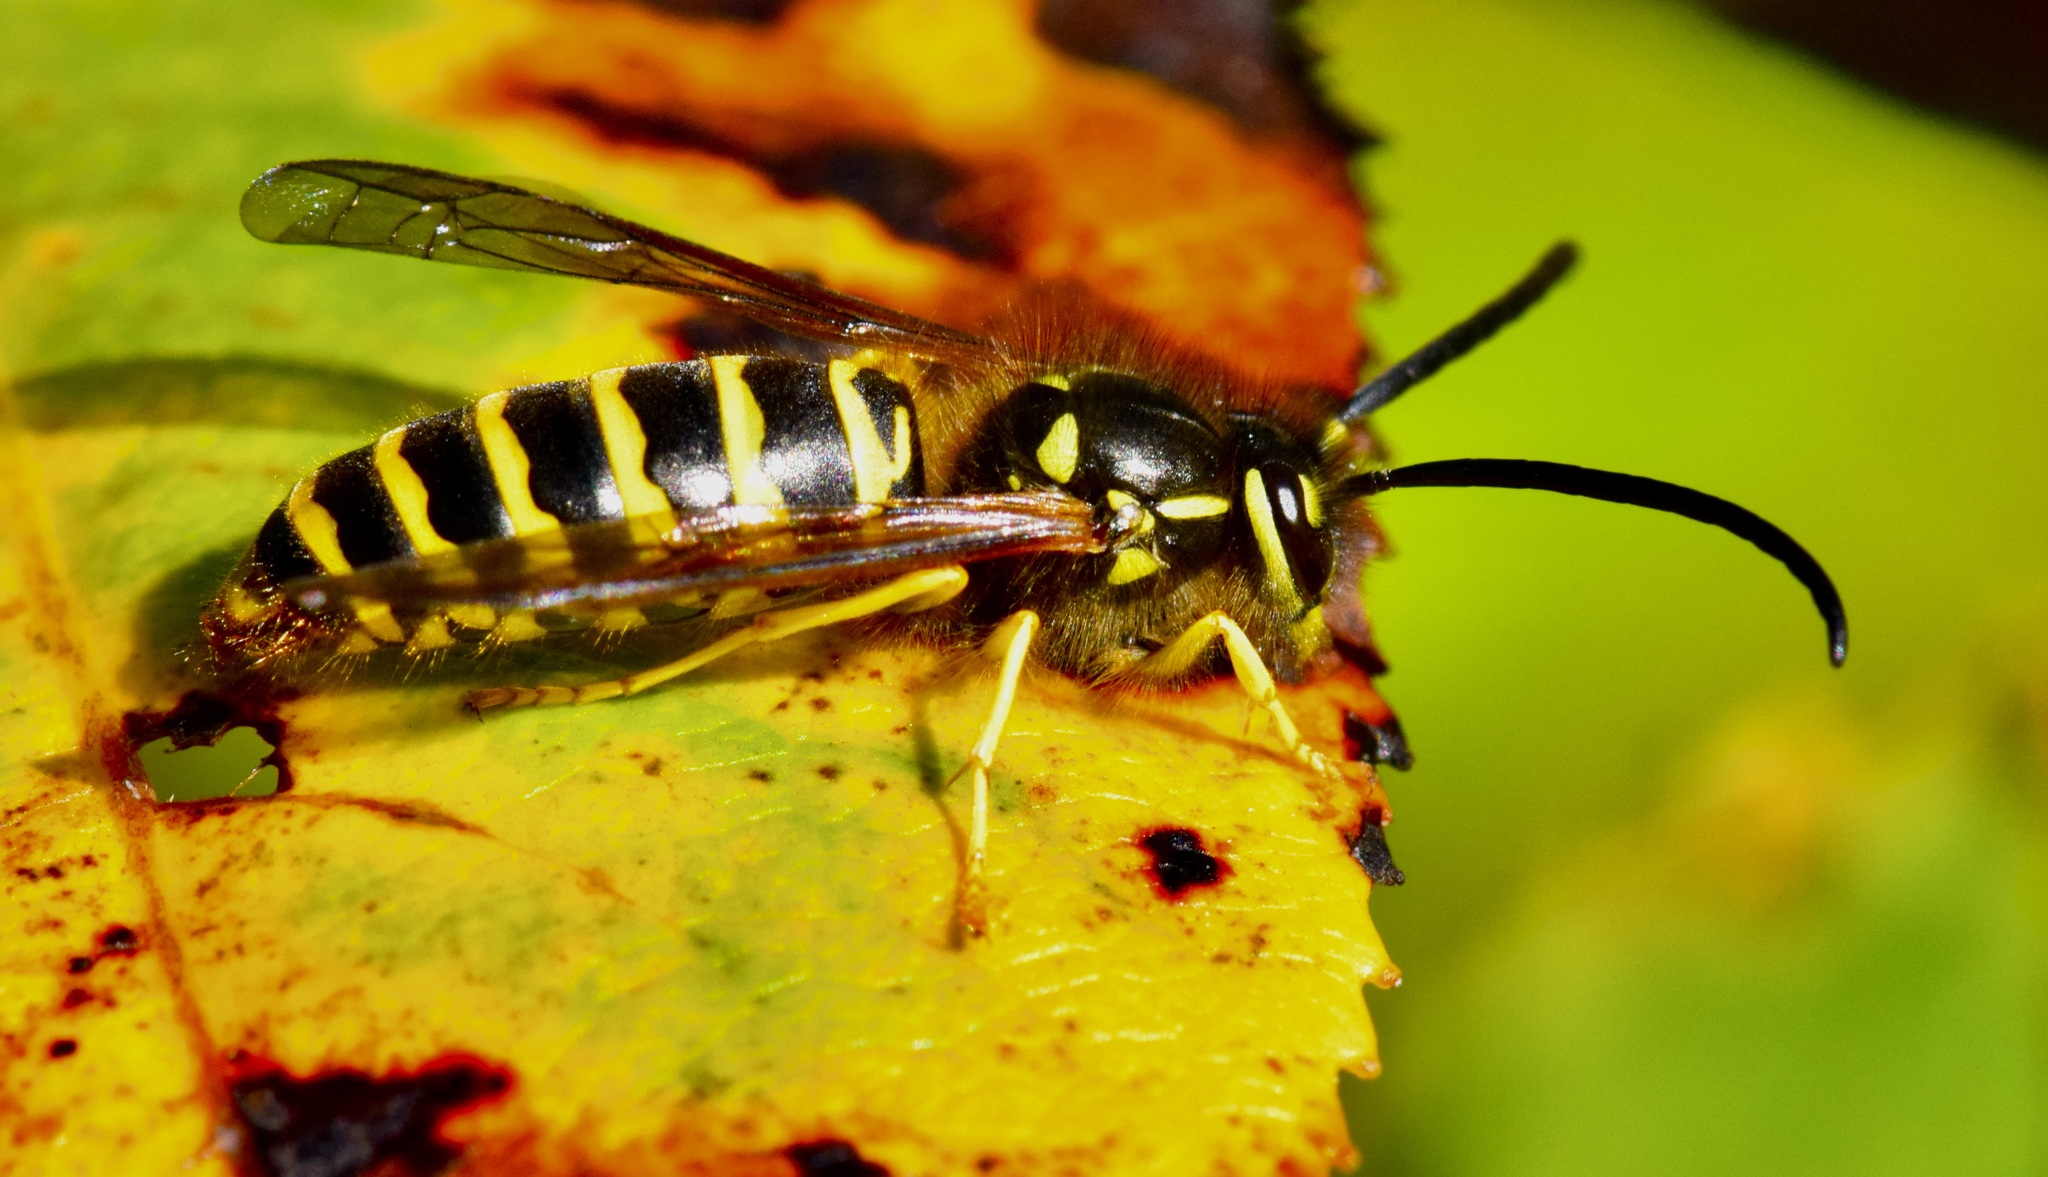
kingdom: Animalia
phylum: Arthropoda
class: Insecta
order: Hymenoptera
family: Vespidae
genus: Vespula
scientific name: Vespula maculifrons
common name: Eastern yellowjacket
